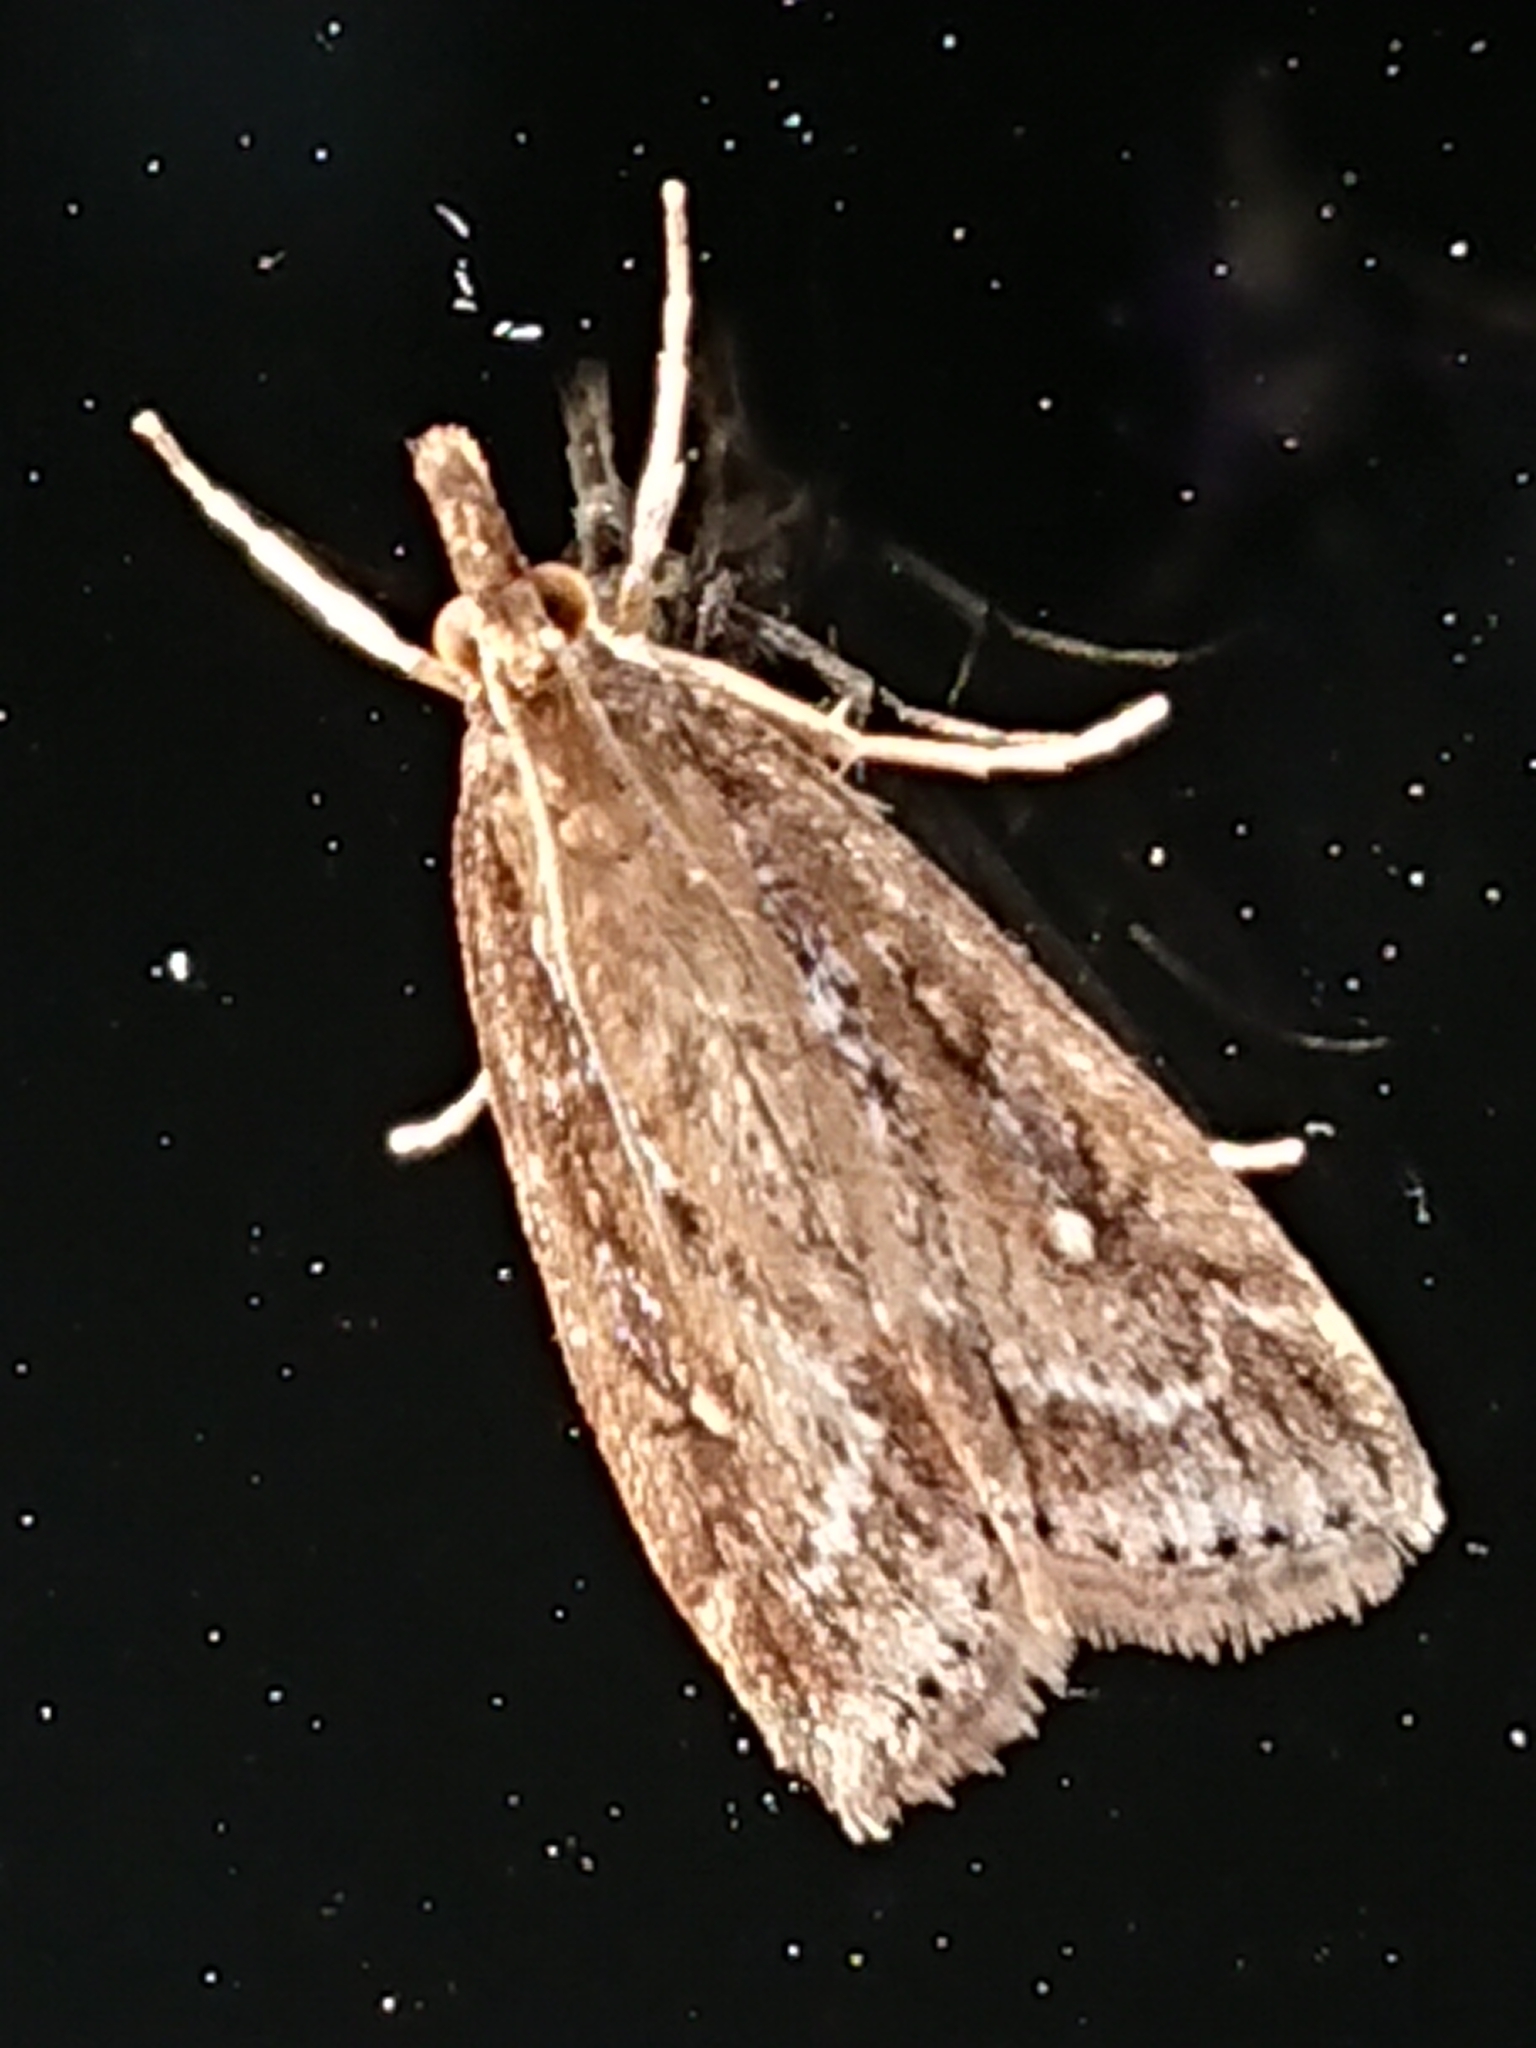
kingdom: Animalia
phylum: Arthropoda
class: Insecta
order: Lepidoptera
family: Crambidae
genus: Eudonia
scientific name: Eudonia octophora
